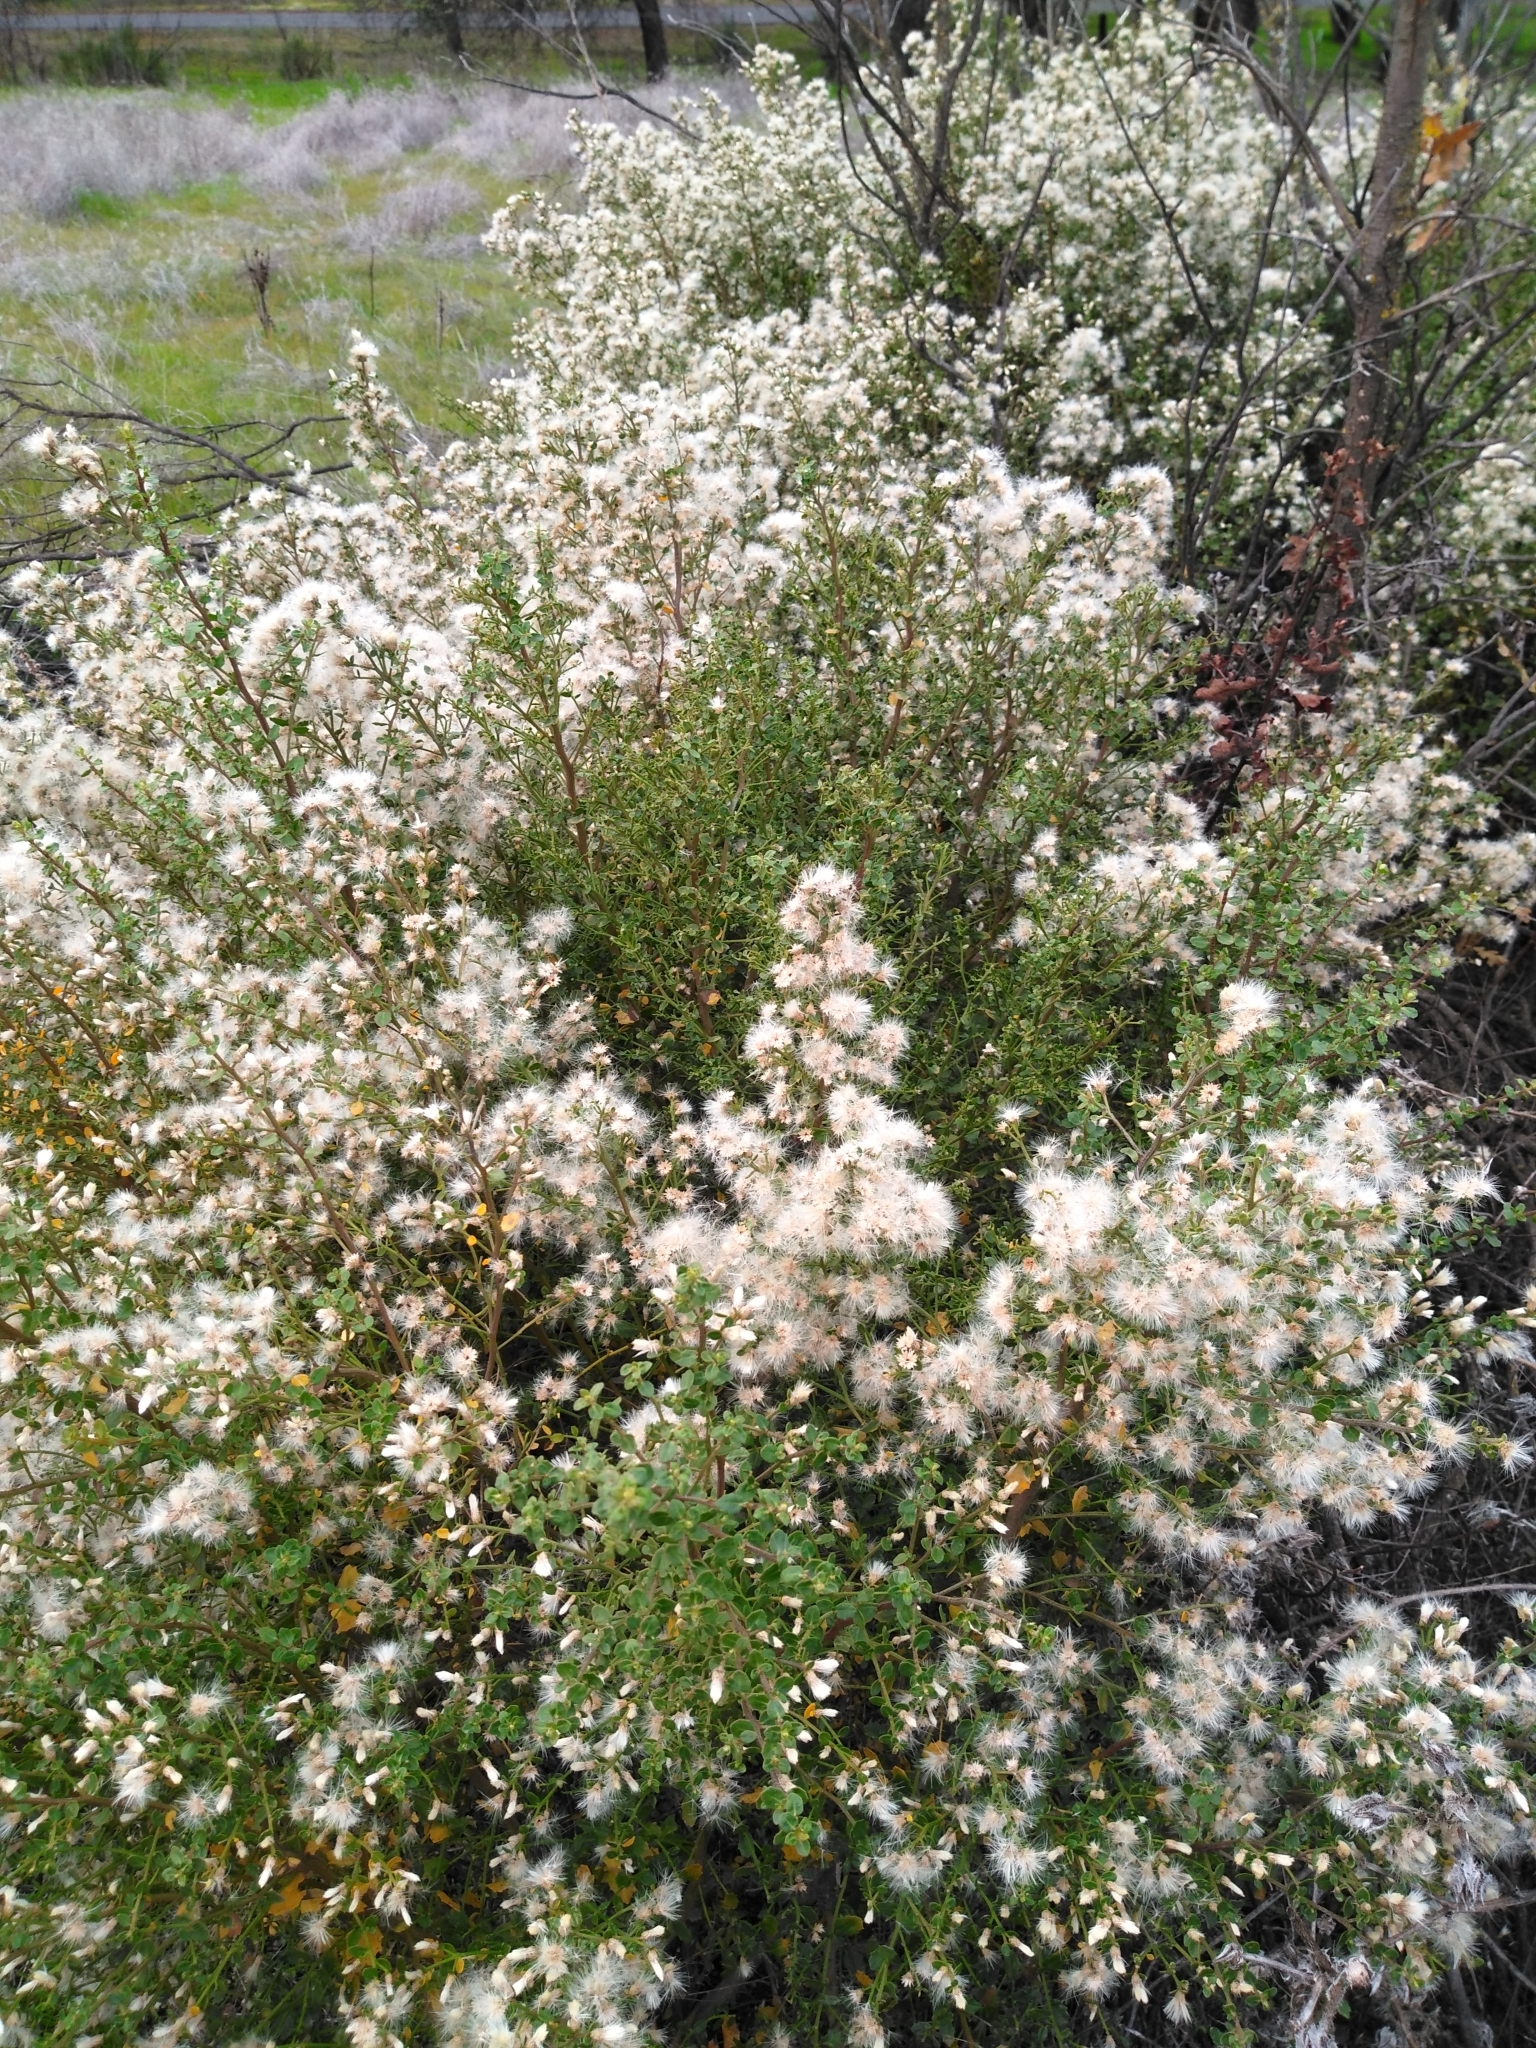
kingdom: Plantae
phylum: Tracheophyta
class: Magnoliopsida
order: Asterales
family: Asteraceae
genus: Baccharis
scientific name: Baccharis pilularis
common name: Coyotebrush
